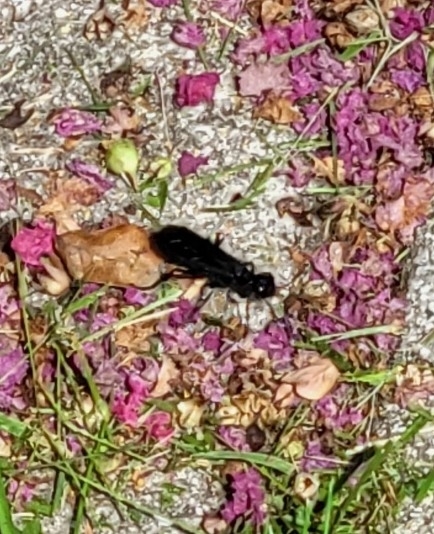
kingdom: Animalia
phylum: Arthropoda
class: Insecta
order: Hymenoptera
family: Sphecidae
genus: Chlorion
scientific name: Chlorion aerarium
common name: Steel-blue cricket hunter
